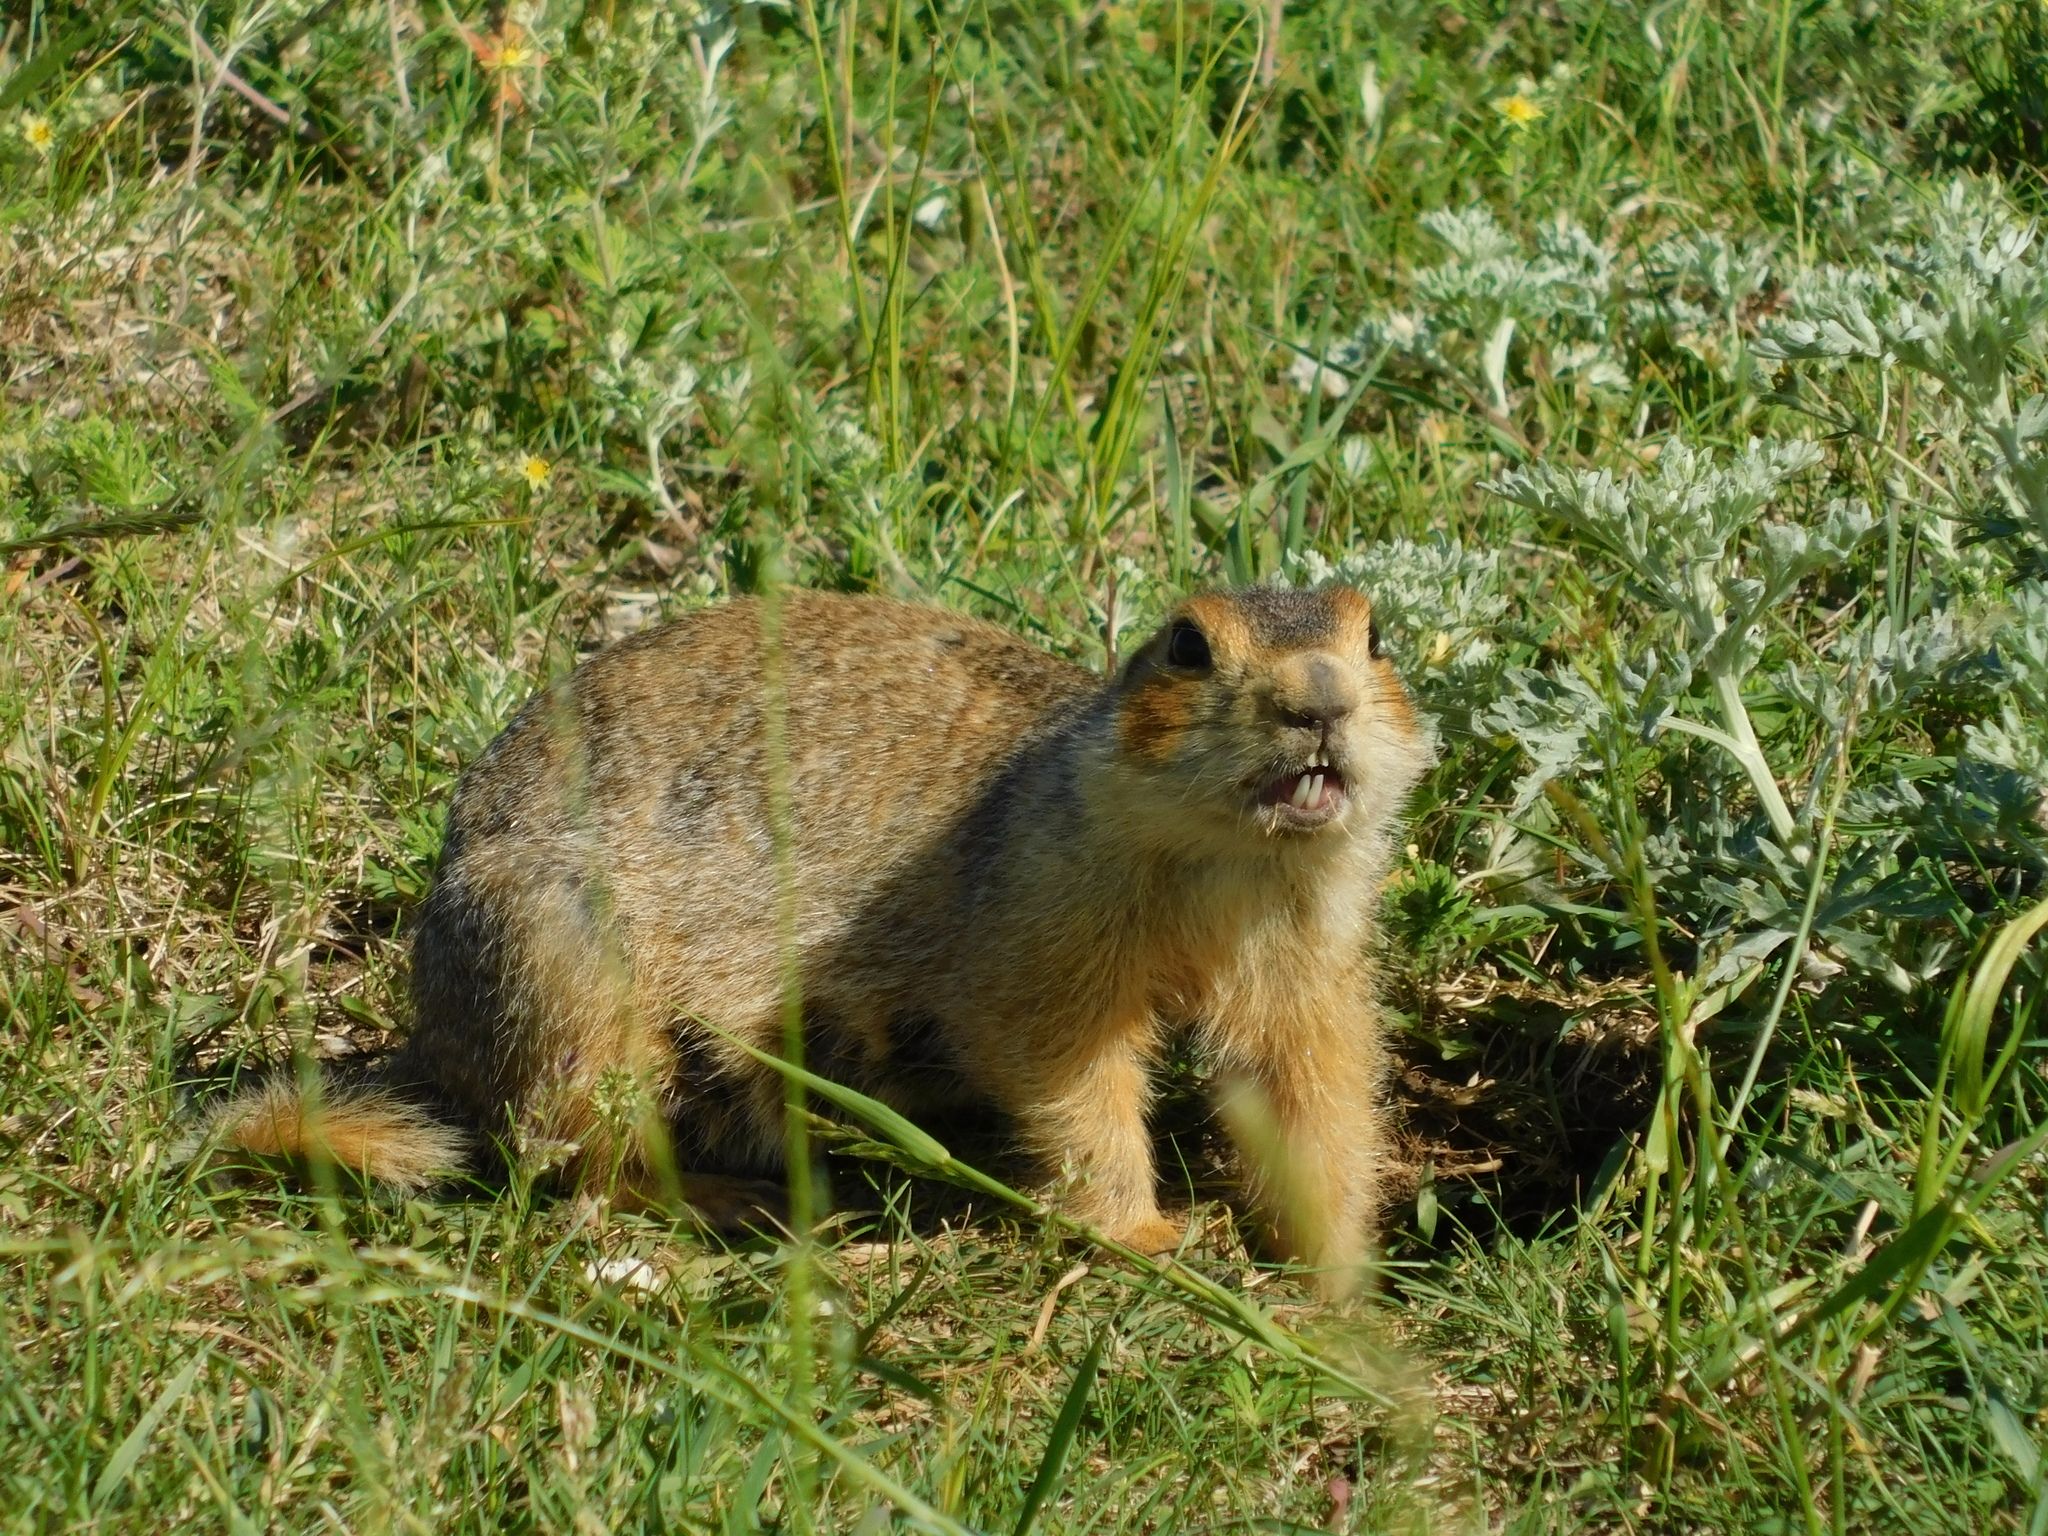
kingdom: Animalia
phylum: Chordata
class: Mammalia
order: Rodentia
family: Sciuridae
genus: Spermophilus
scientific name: Spermophilus major
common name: Russet ground squirrel
